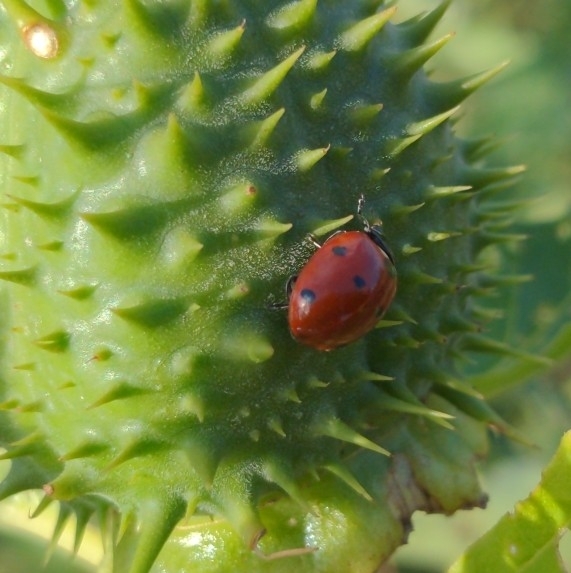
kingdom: Animalia
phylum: Arthropoda
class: Insecta
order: Coleoptera
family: Coccinellidae
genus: Coccinella
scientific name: Coccinella septempunctata
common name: Sevenspotted lady beetle
